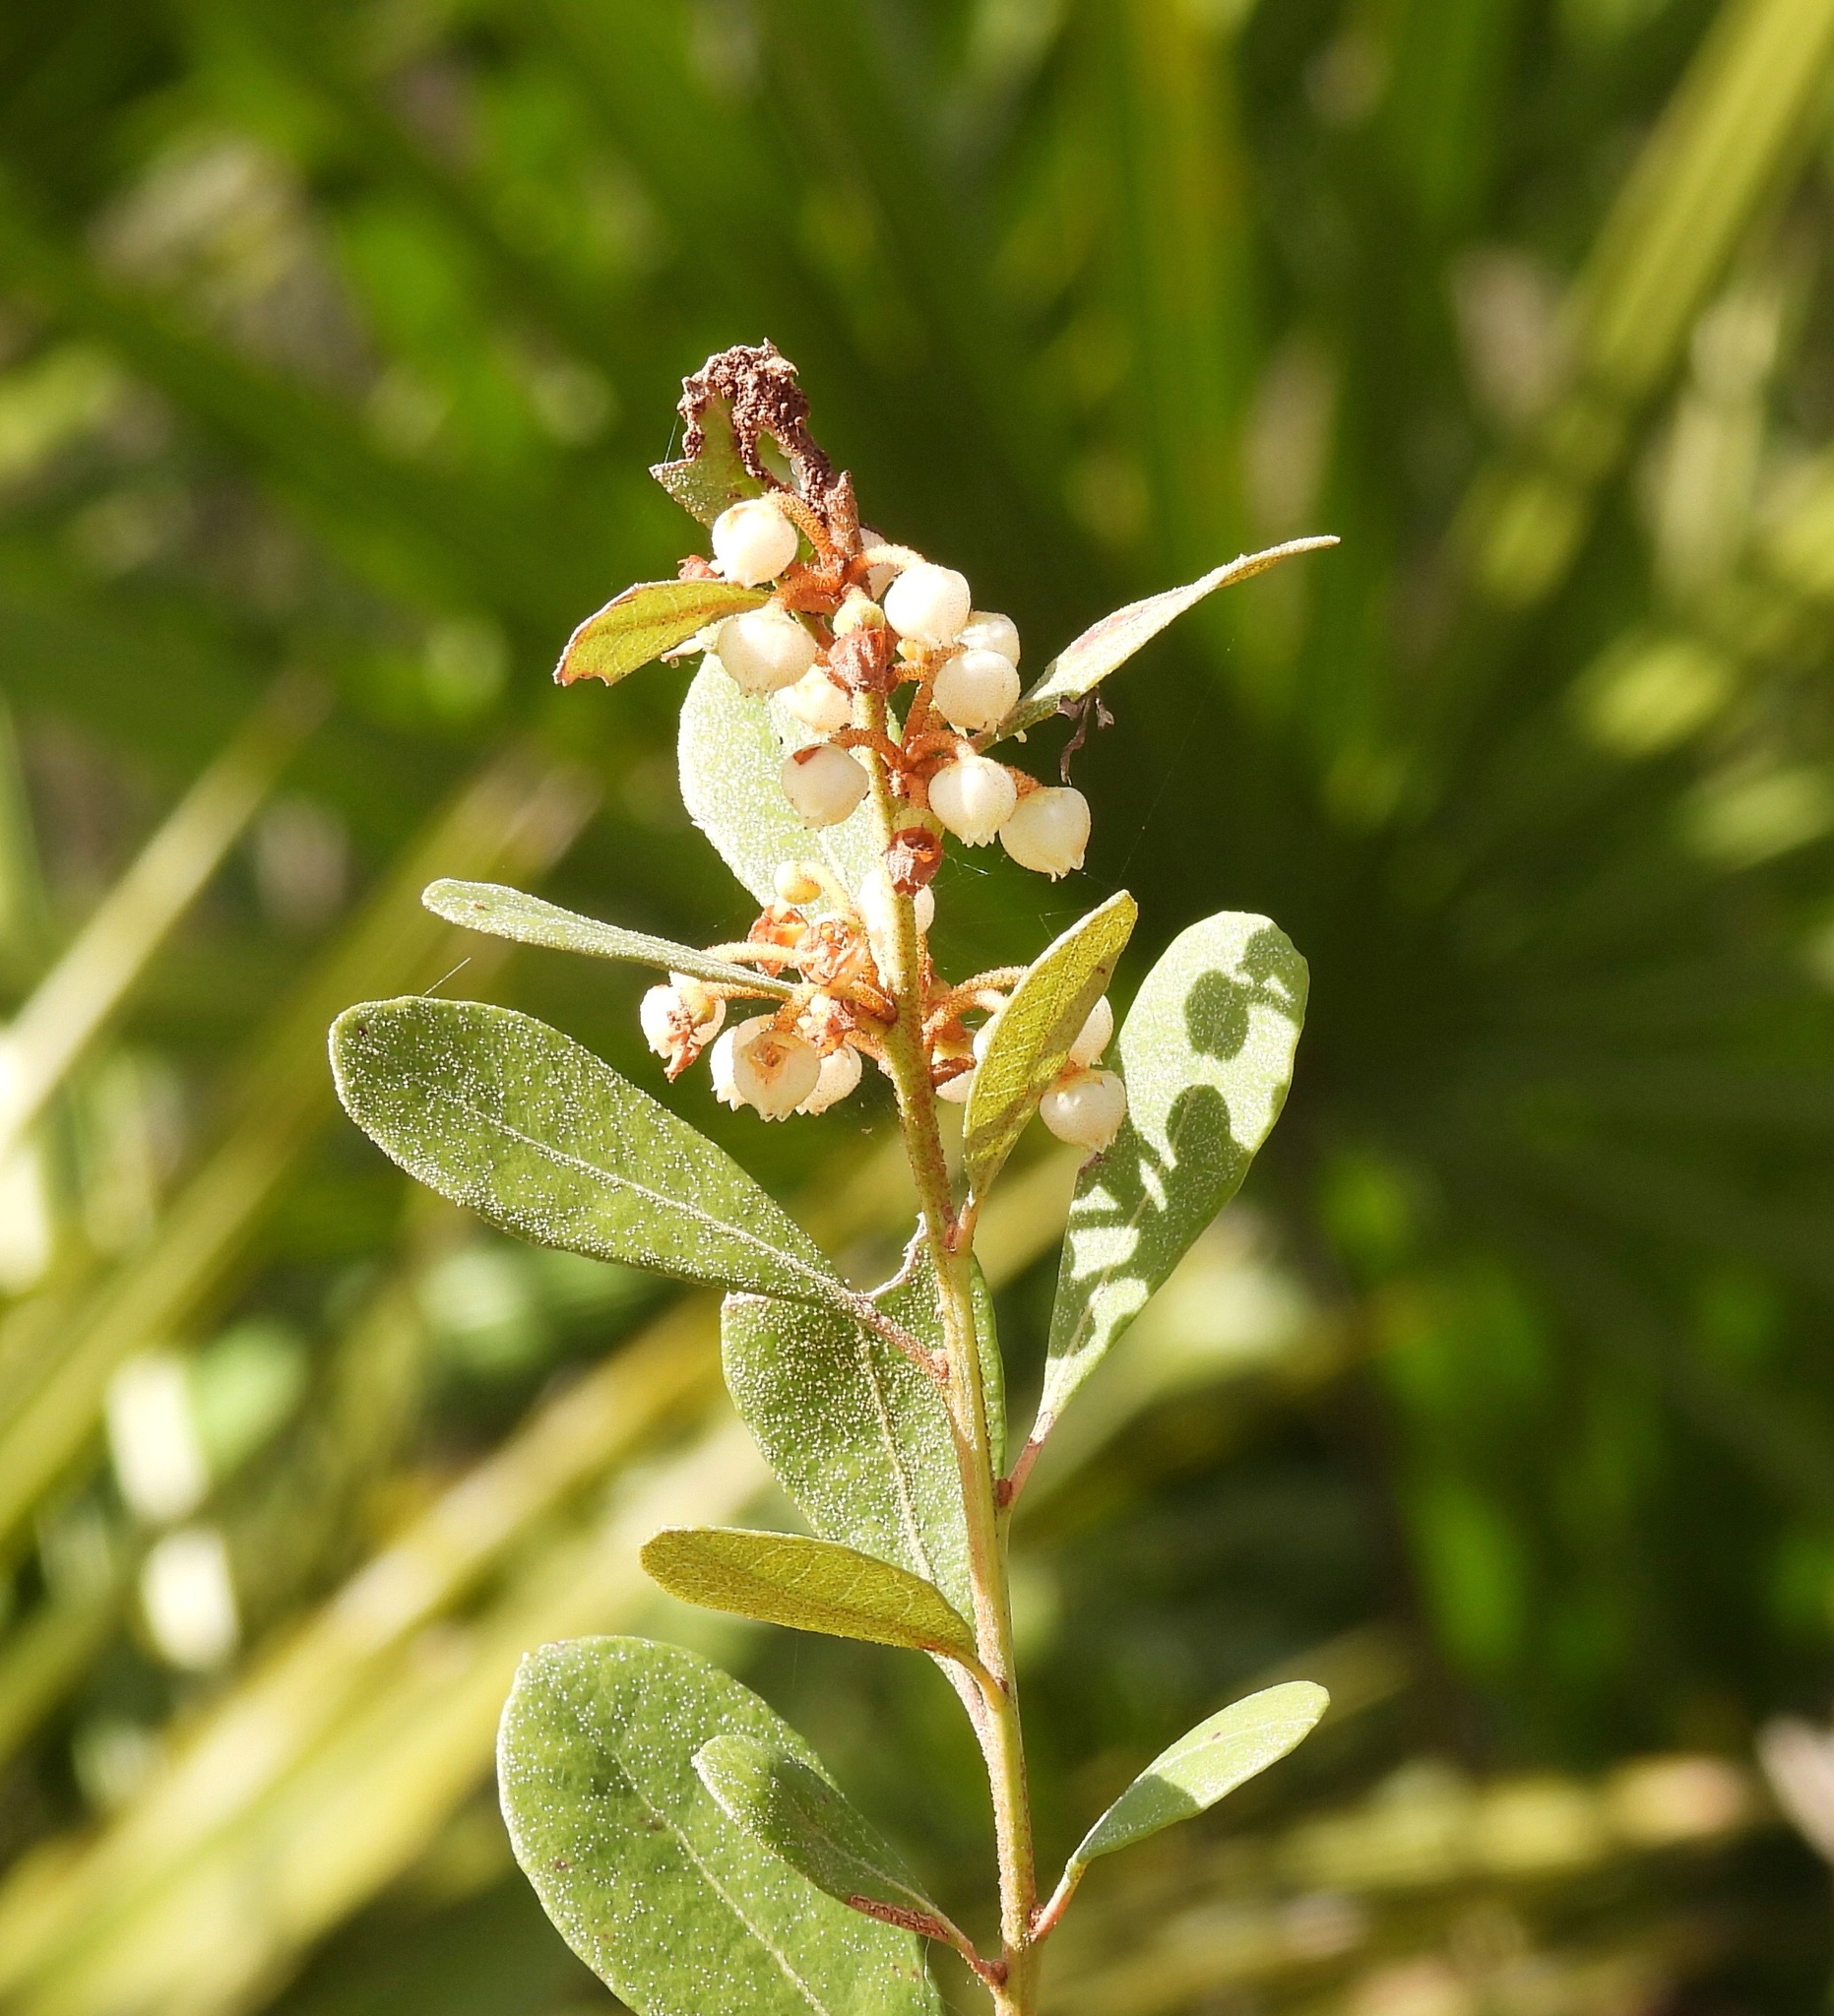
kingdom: Plantae
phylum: Tracheophyta
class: Magnoliopsida
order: Ericales
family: Ericaceae
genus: Lyonia
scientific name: Lyonia fruticosa
